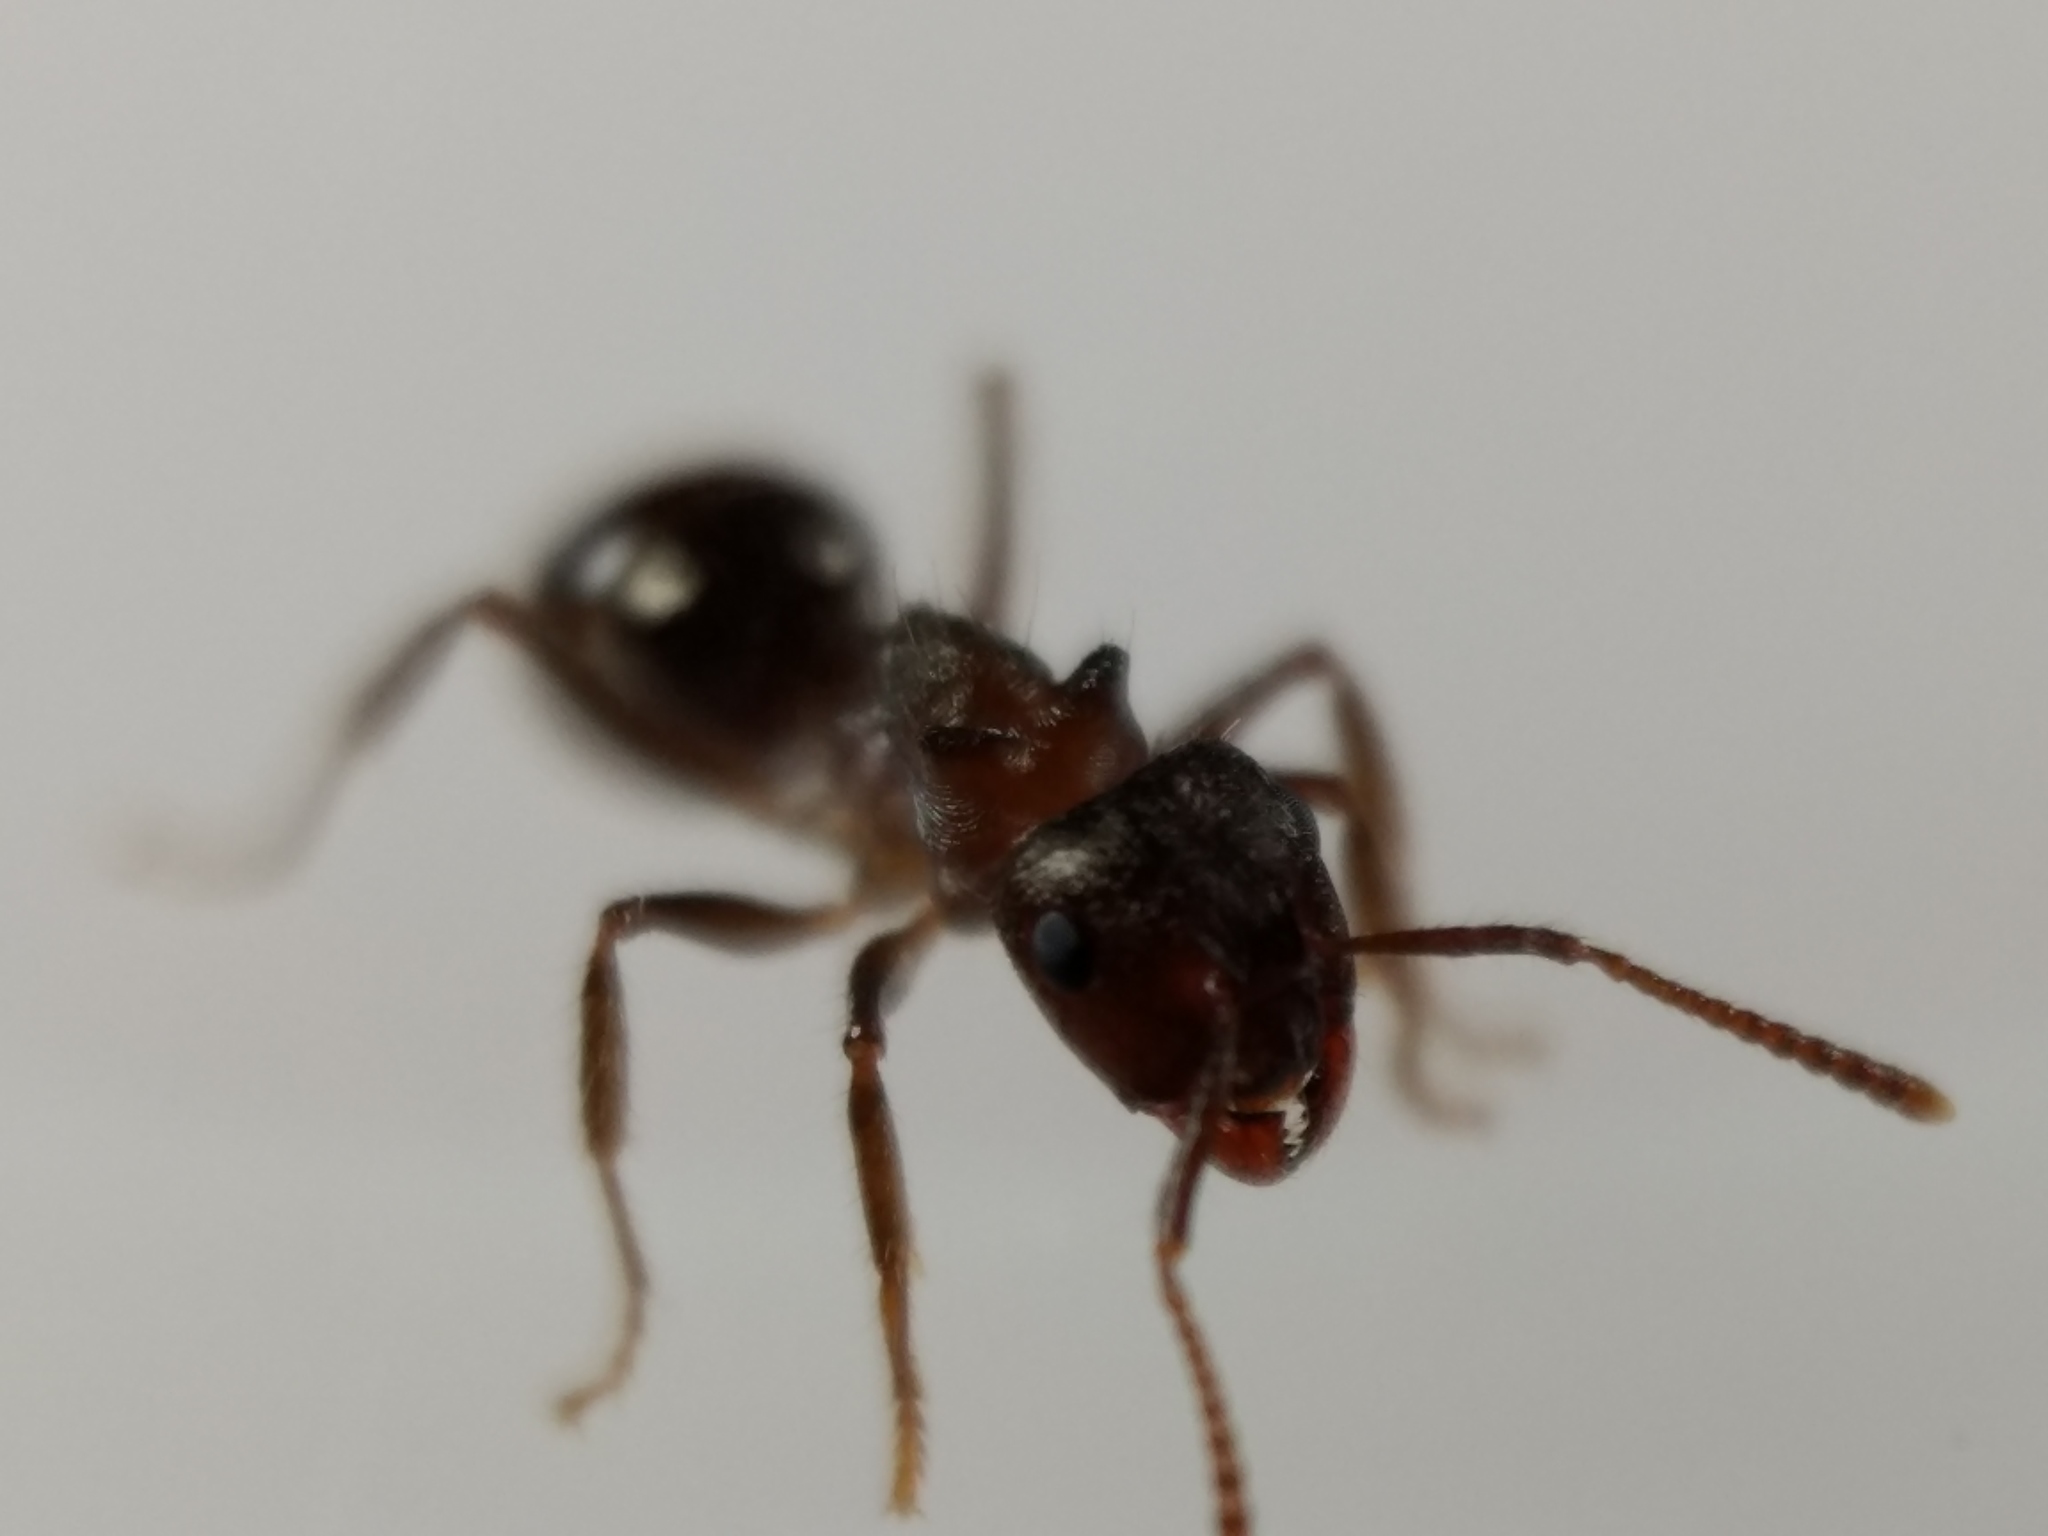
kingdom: Animalia
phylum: Arthropoda
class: Insecta
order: Hymenoptera
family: Formicidae
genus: Notoncus
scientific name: Notoncus ectatommoides
